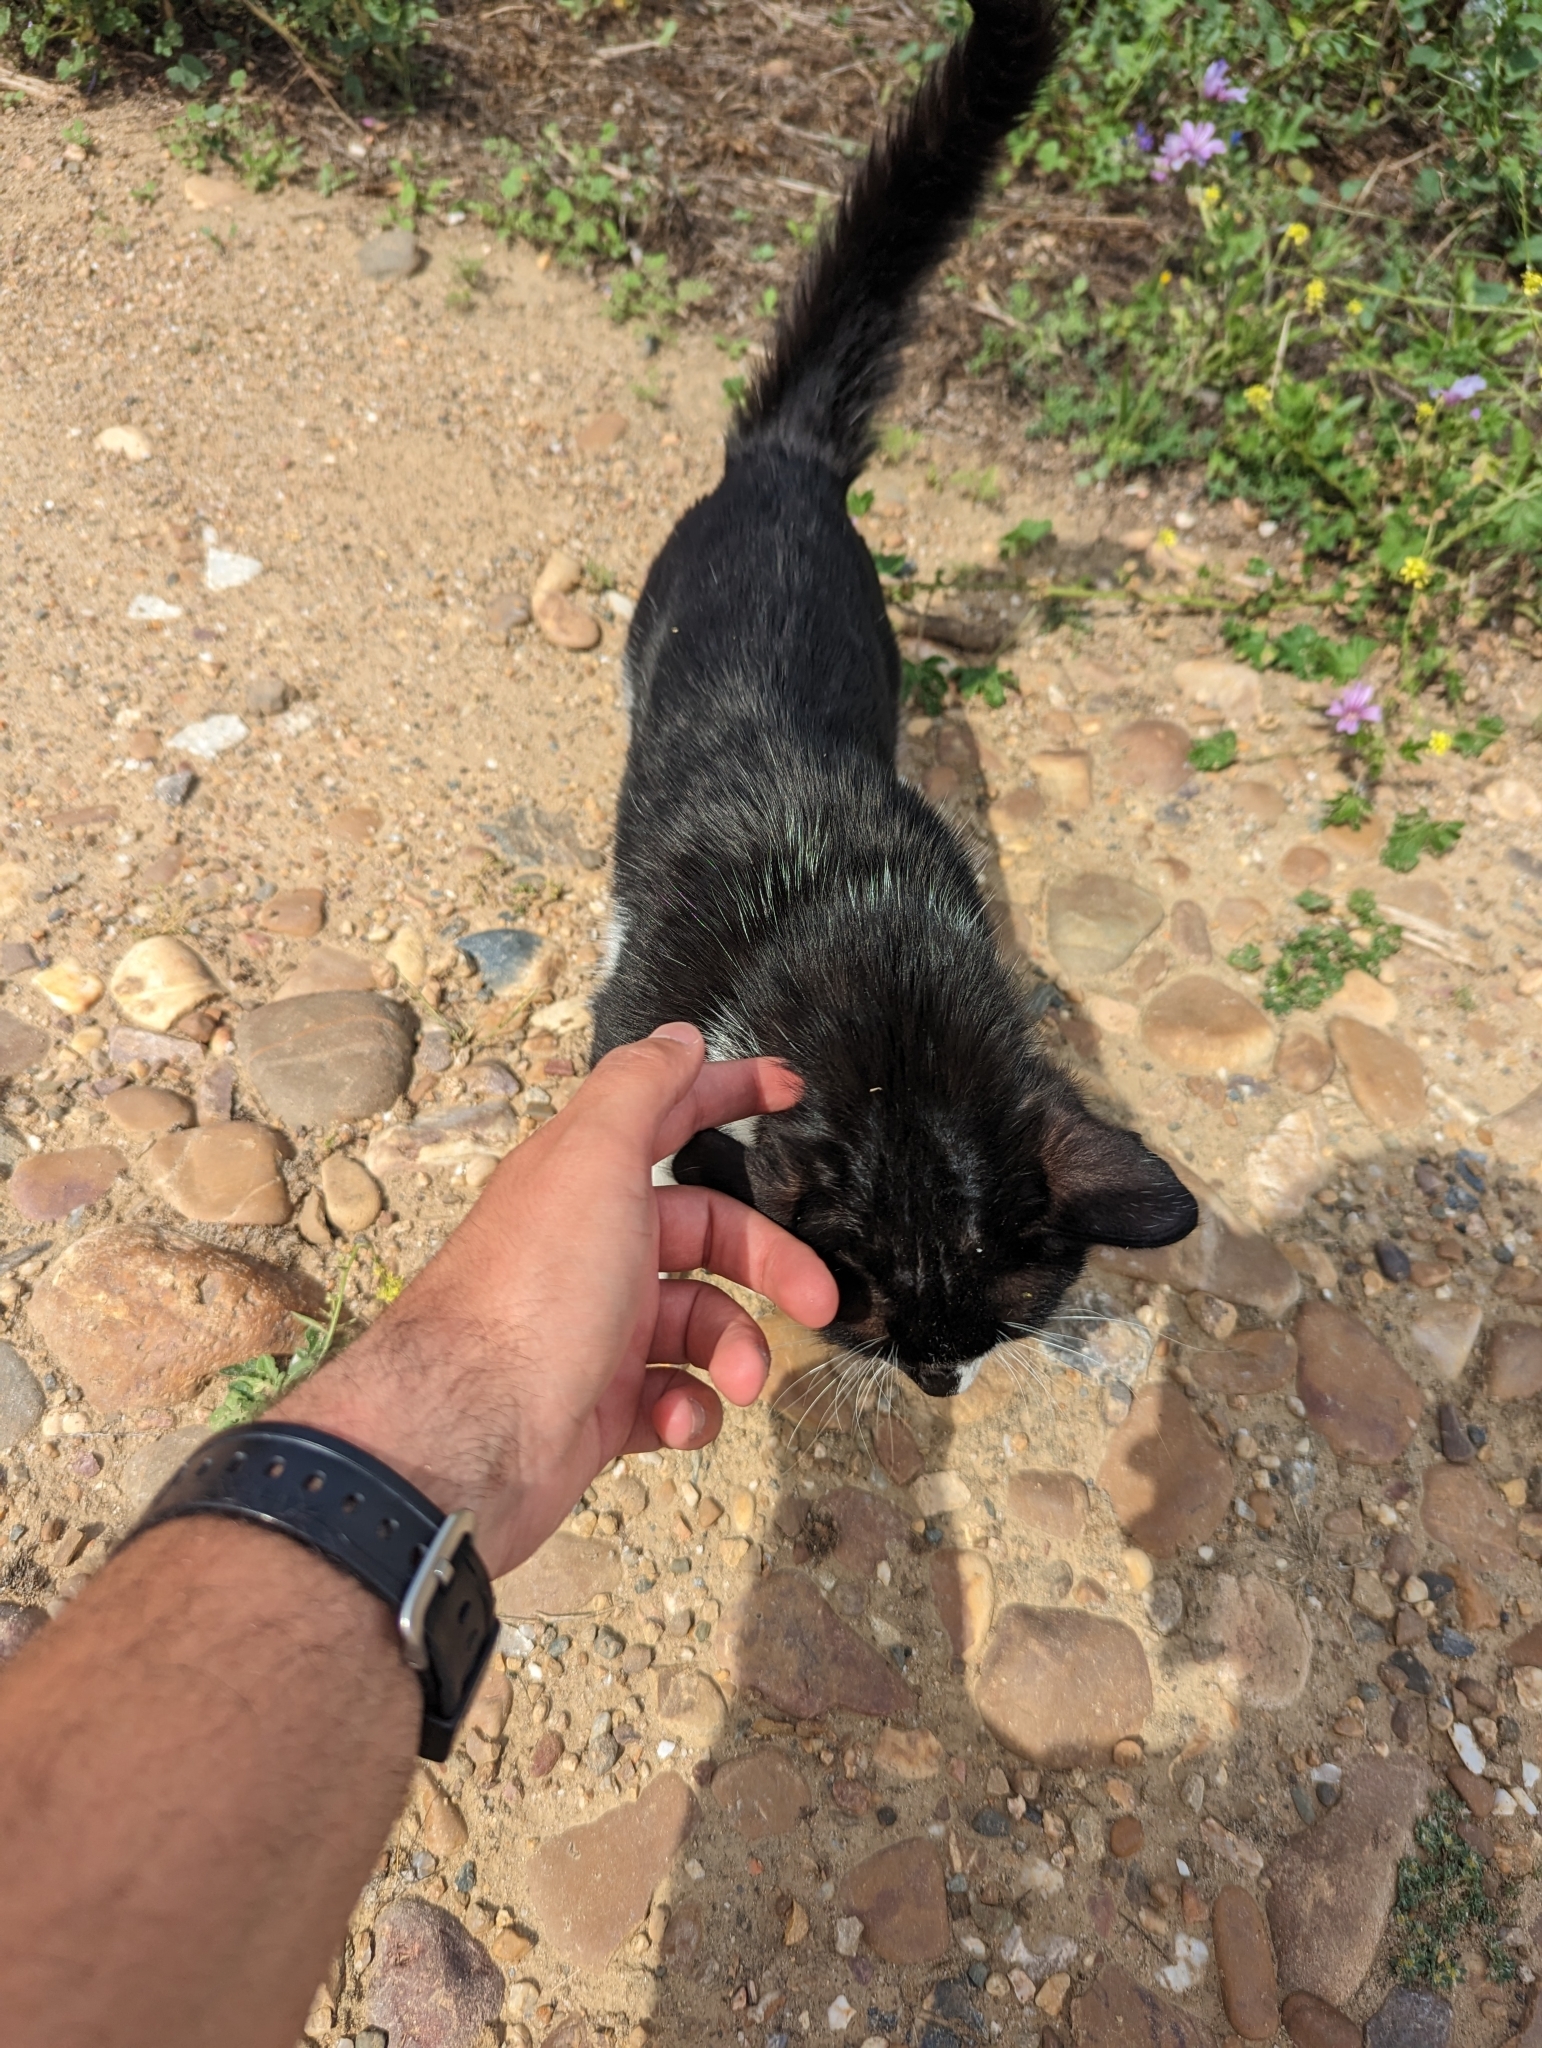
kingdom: Animalia
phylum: Chordata
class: Mammalia
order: Carnivora
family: Felidae
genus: Felis
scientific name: Felis catus
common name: Domestic cat
